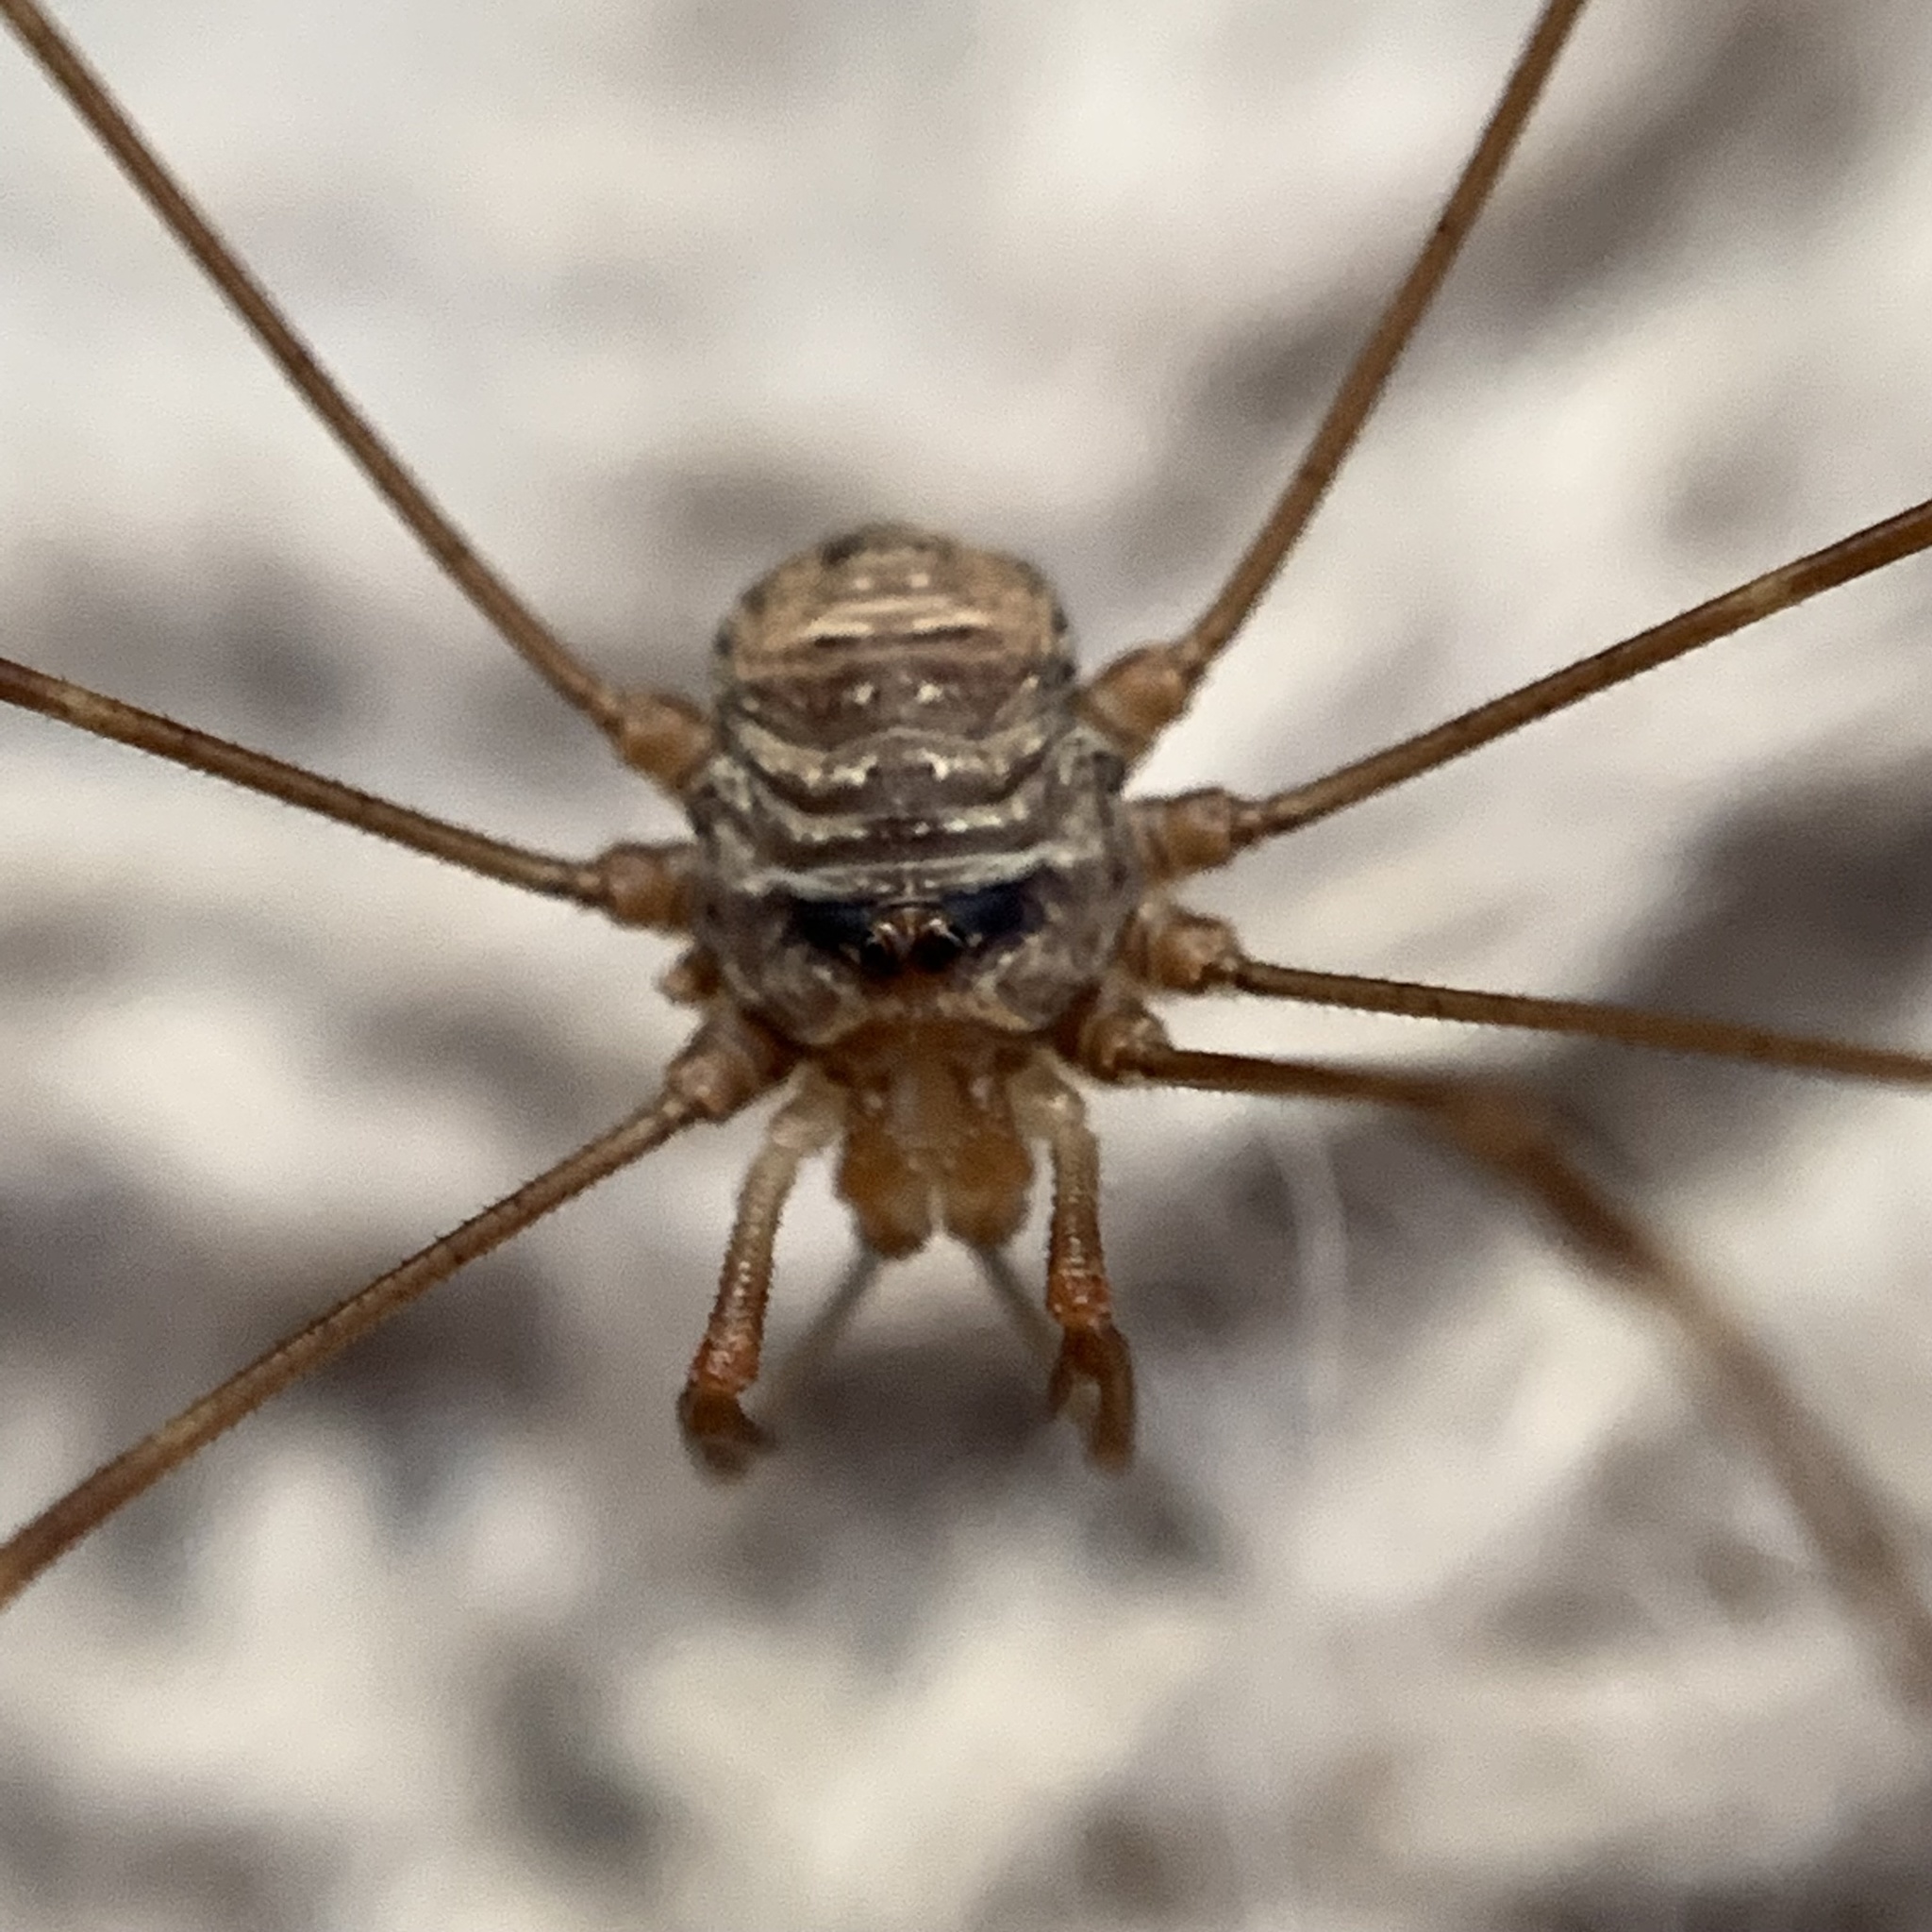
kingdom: Animalia
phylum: Arthropoda
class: Arachnida
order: Opiliones
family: Phalangiidae
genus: Dicranopalpus
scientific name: Dicranopalpus ramosus
